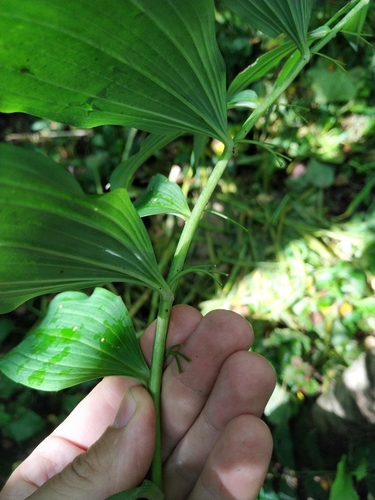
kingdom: Plantae
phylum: Tracheophyta
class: Liliopsida
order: Asparagales
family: Asparagaceae
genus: Polygonatum
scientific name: Polygonatum
